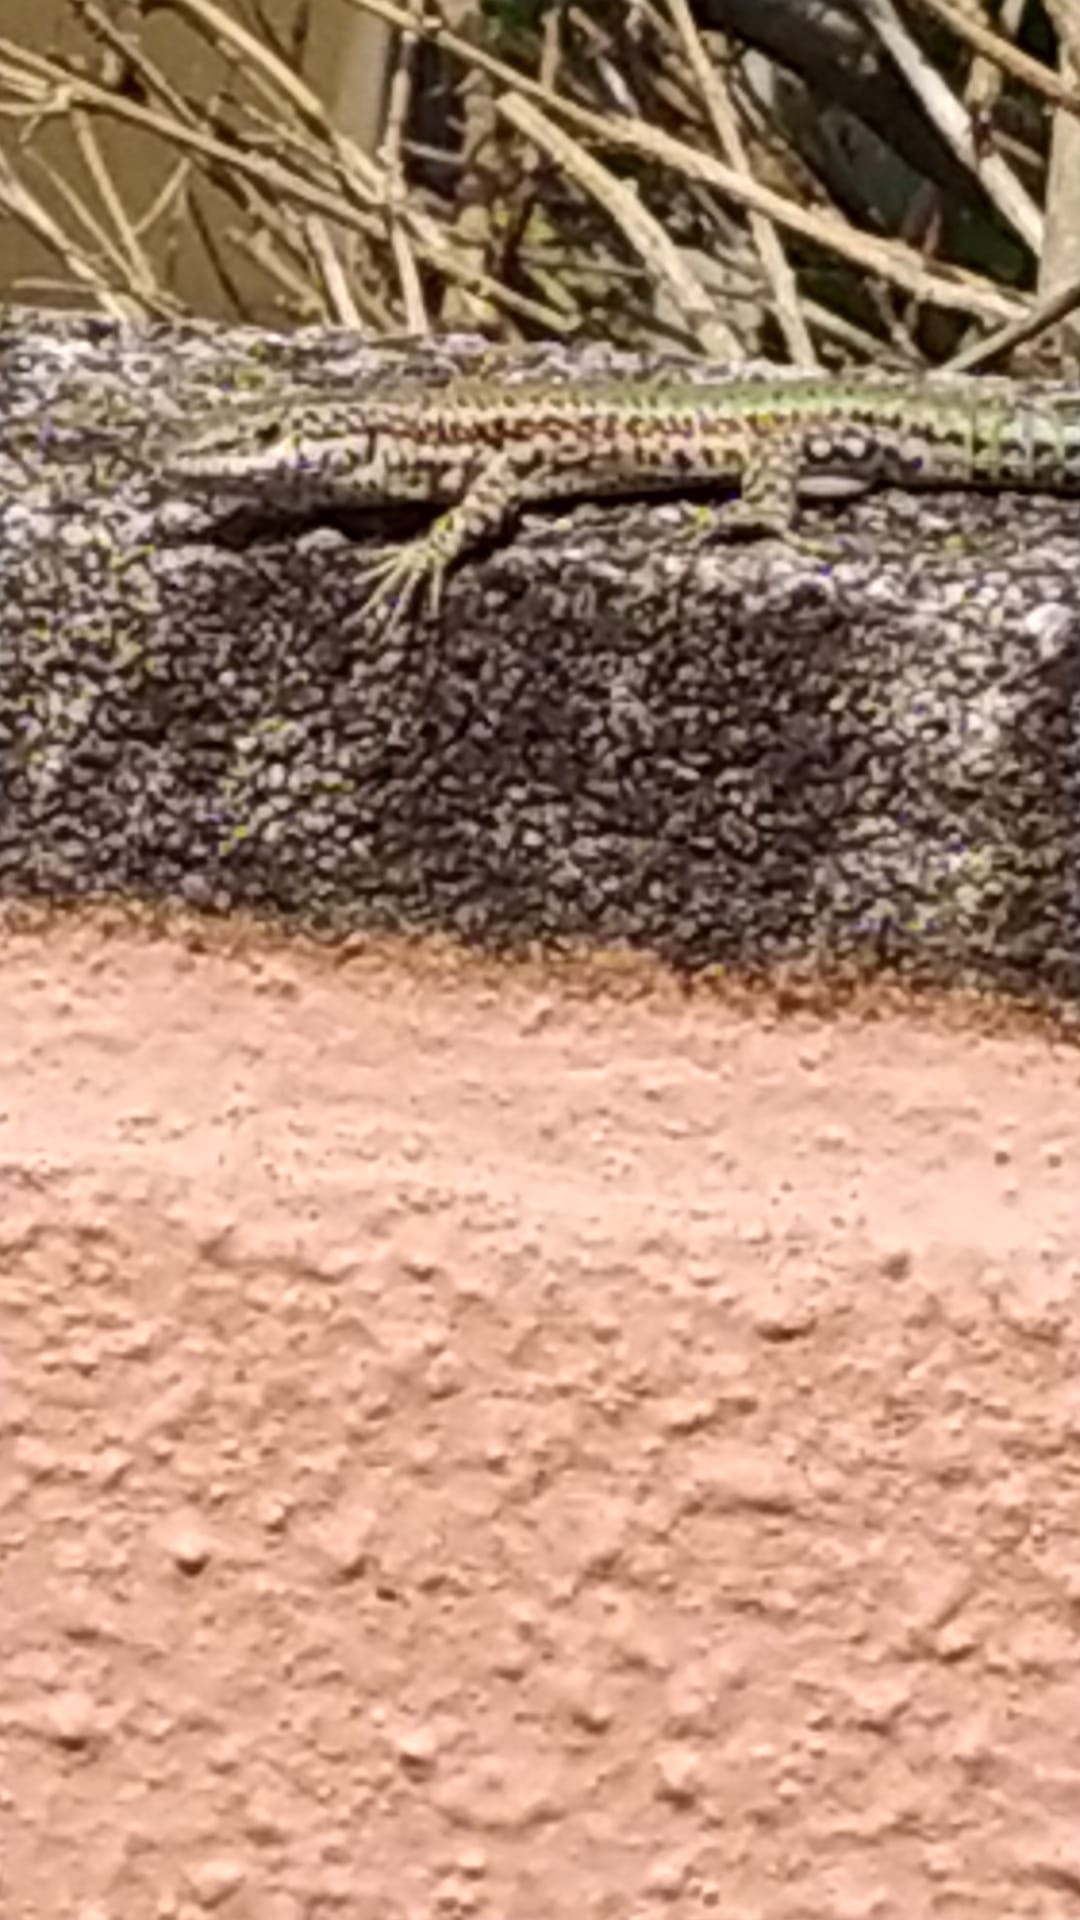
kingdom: Animalia
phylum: Chordata
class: Squamata
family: Lacertidae
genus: Podarcis
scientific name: Podarcis vaucheri
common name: Vaucher's wall lizard
